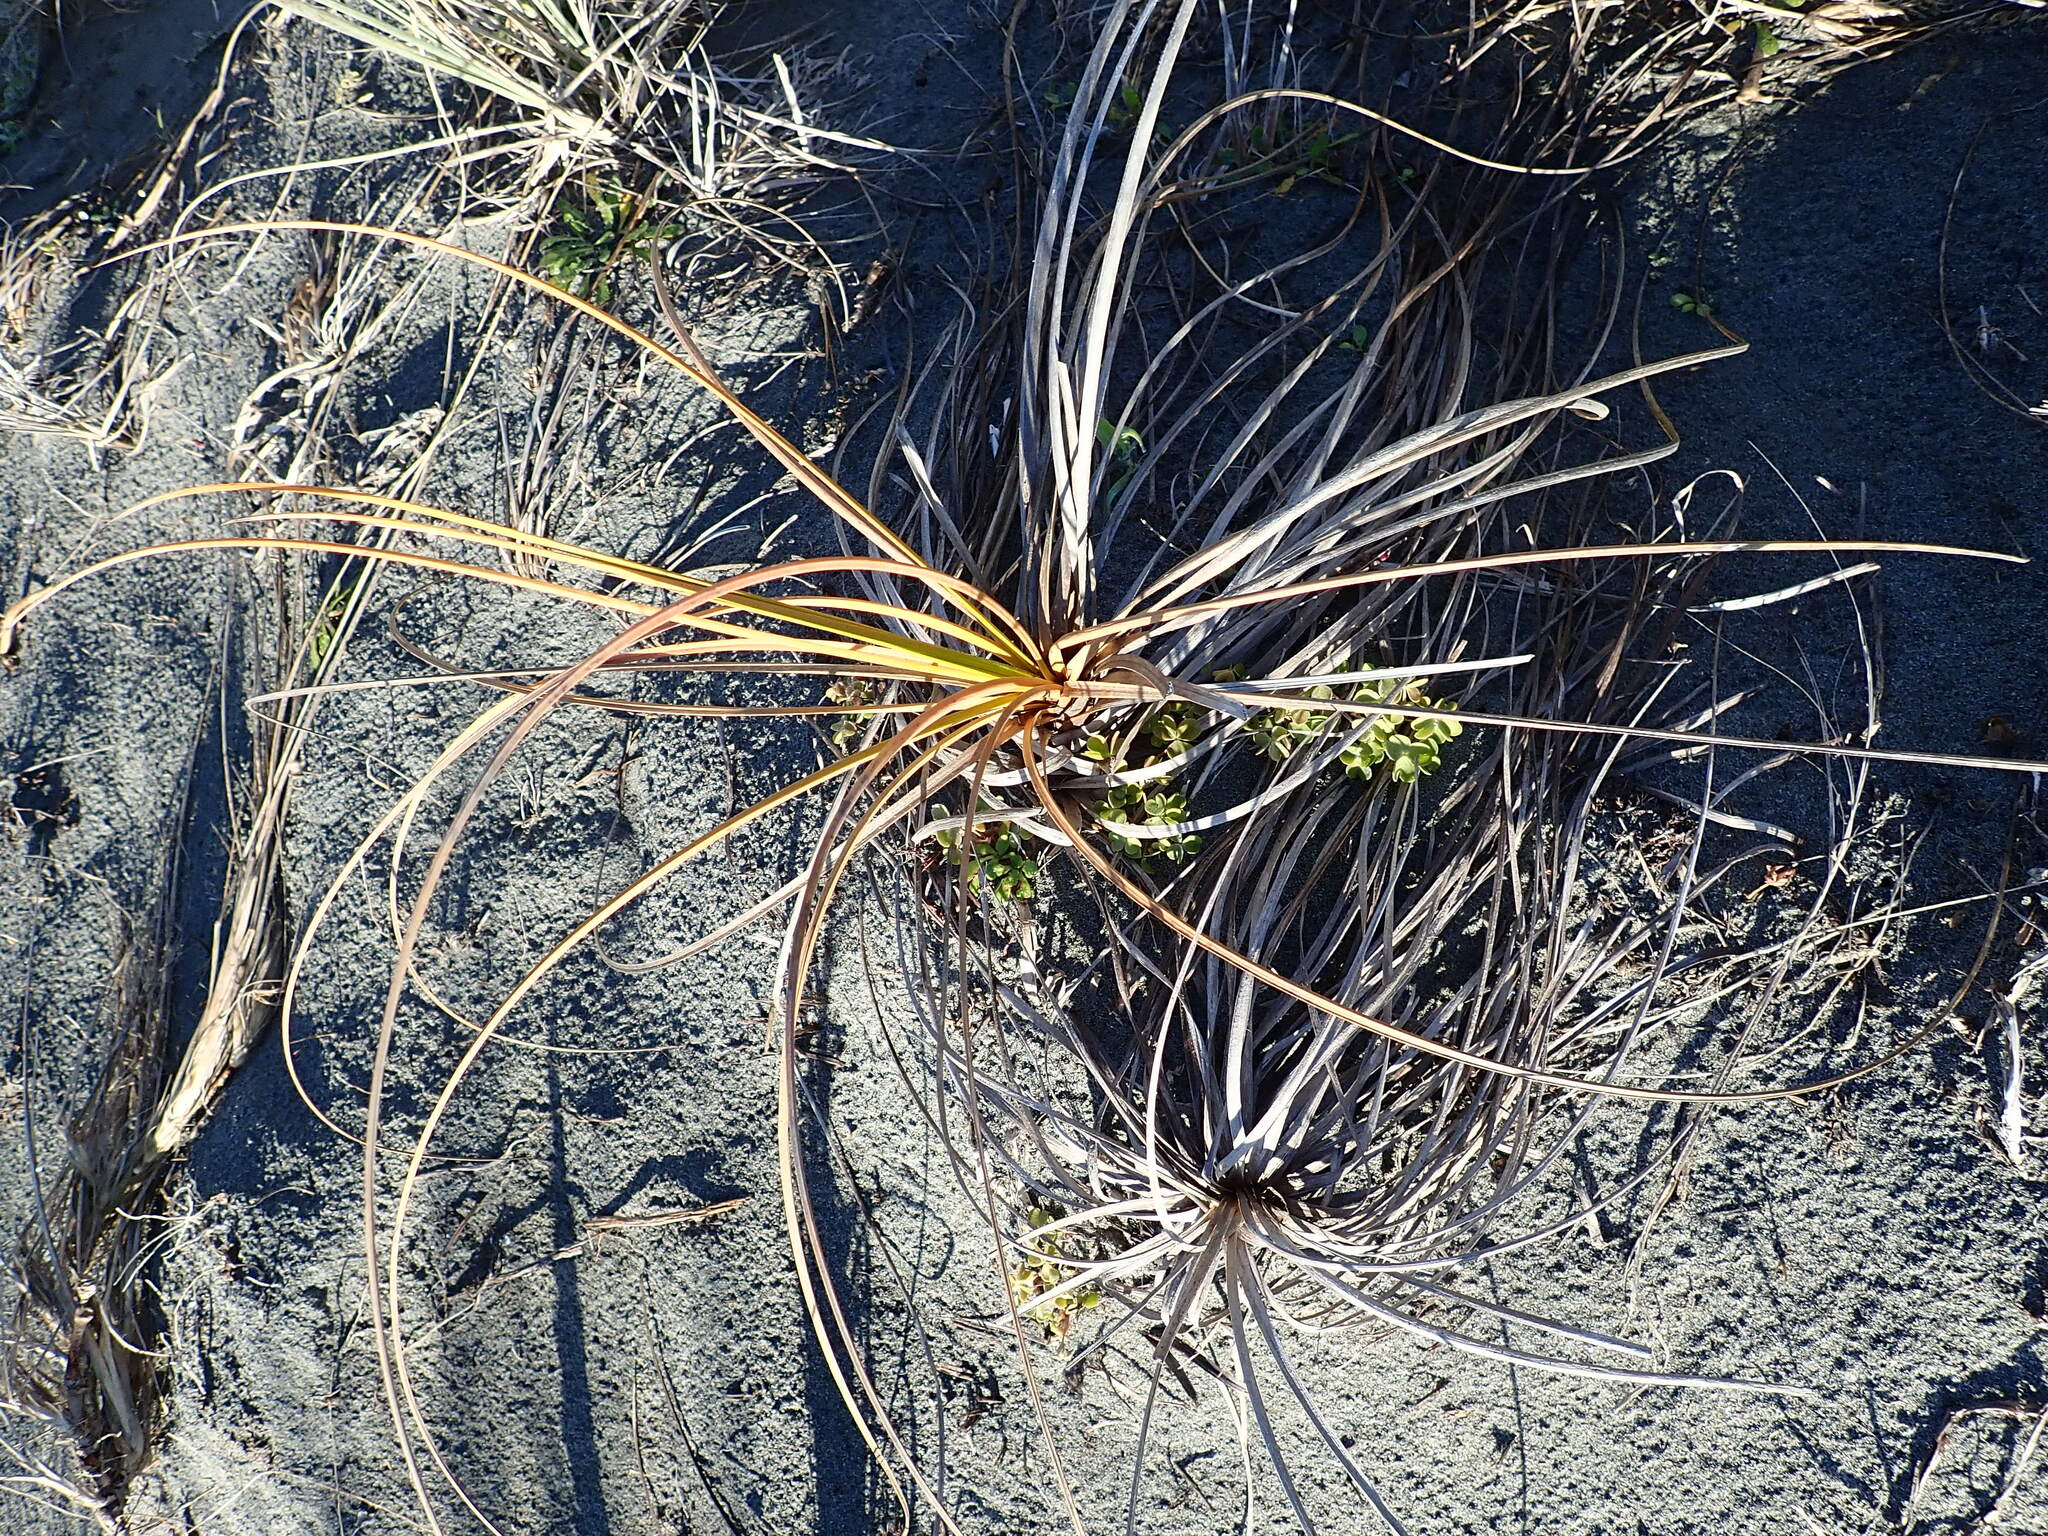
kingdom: Plantae
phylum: Tracheophyta
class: Liliopsida
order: Poales
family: Cyperaceae
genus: Ficinia
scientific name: Ficinia spiralis
